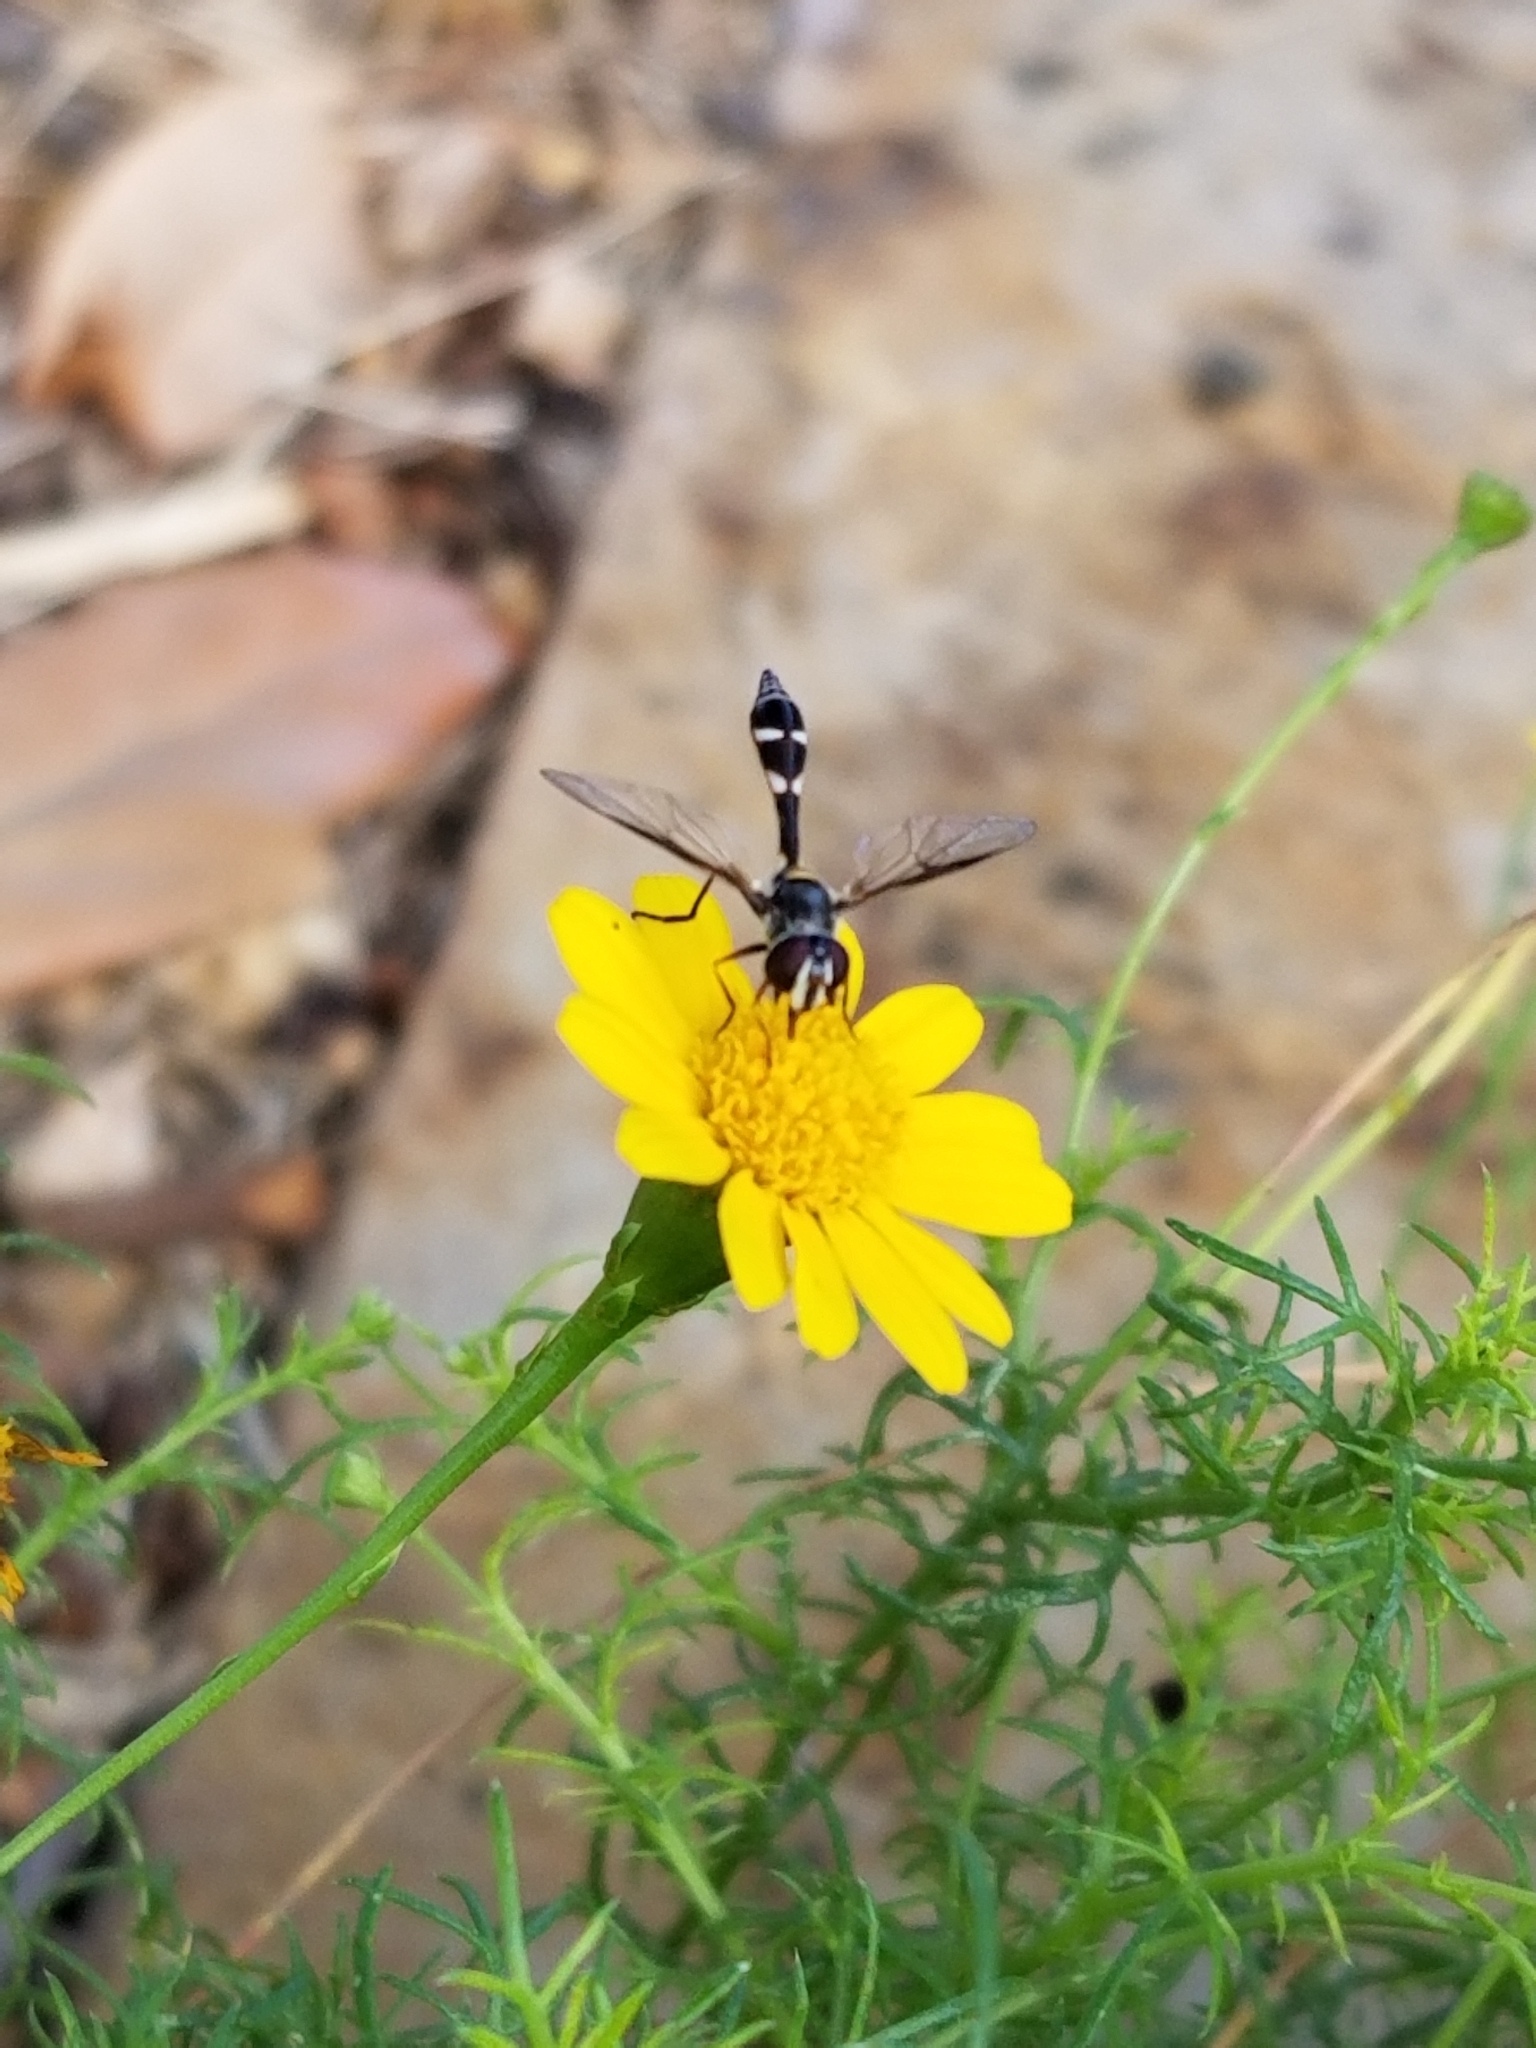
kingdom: Animalia
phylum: Arthropoda
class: Insecta
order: Diptera
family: Syrphidae
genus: Dioprosopa
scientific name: Dioprosopa clavatus
